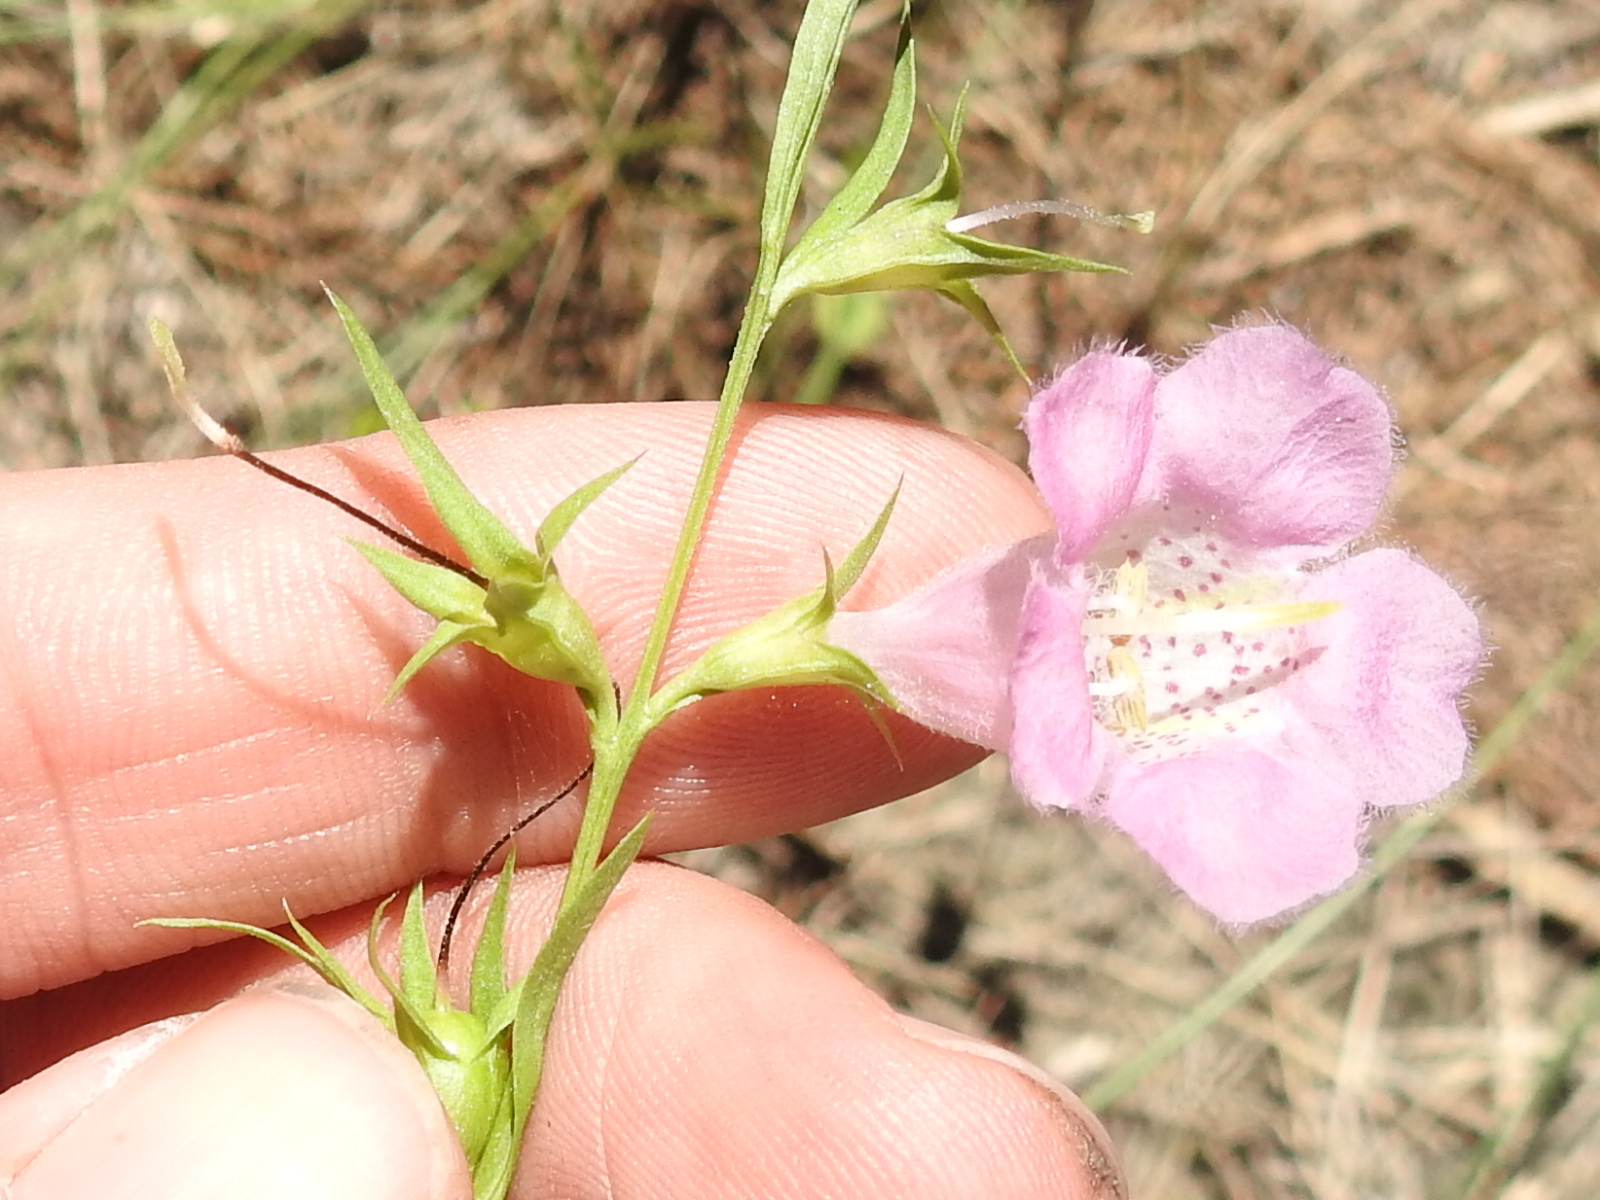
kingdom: Plantae
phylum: Tracheophyta
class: Magnoliopsida
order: Lamiales
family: Orobanchaceae
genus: Agalinis
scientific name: Agalinis heterophylla
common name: Prairie agalinis
